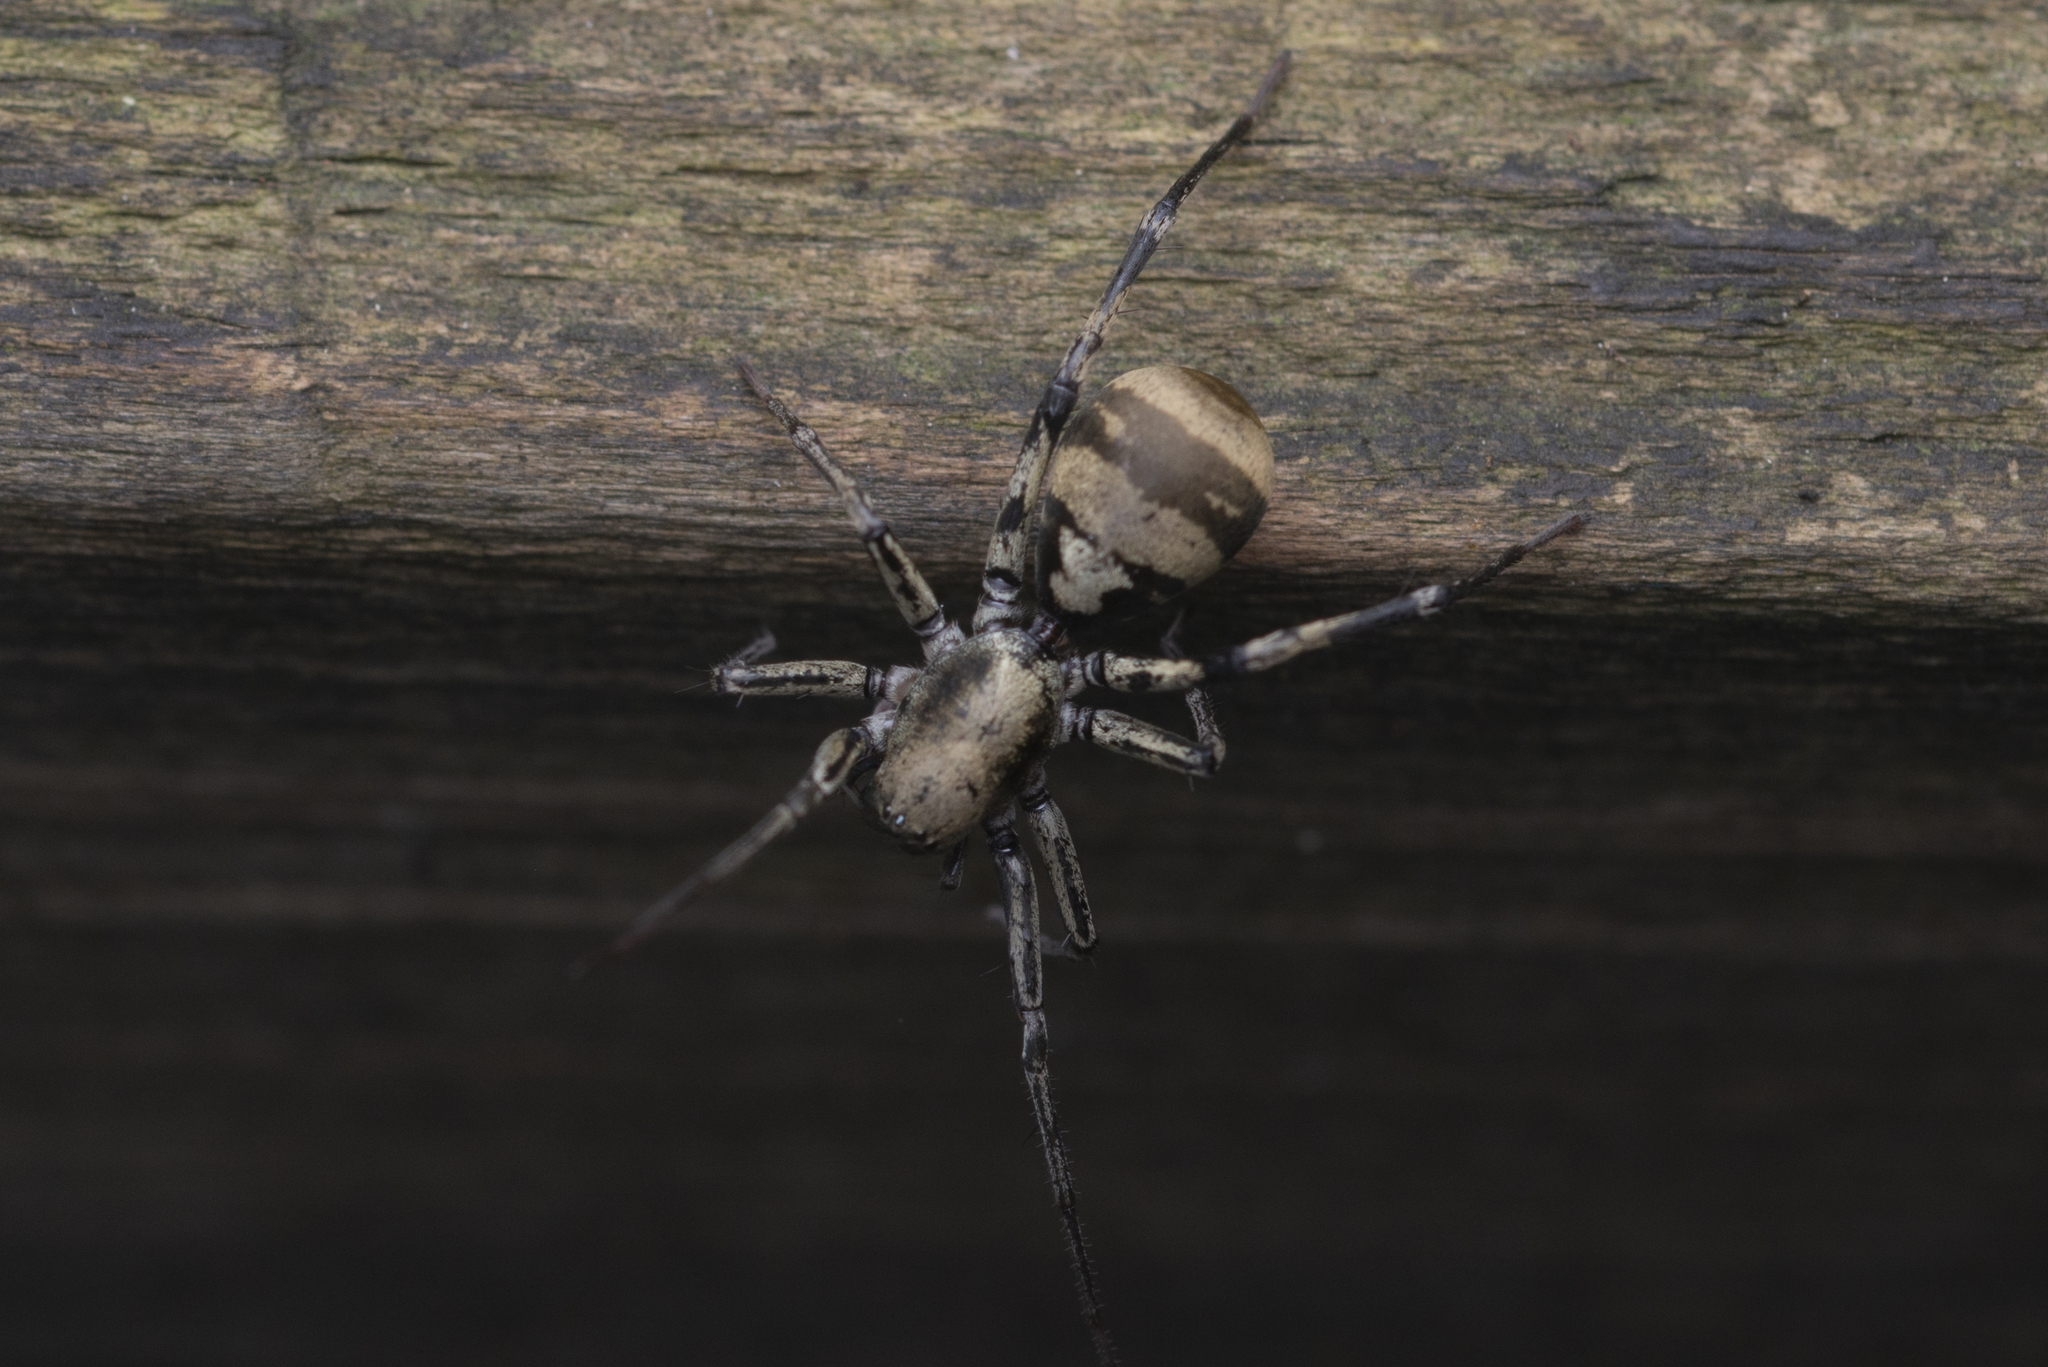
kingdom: Animalia
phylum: Arthropoda
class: Arachnida
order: Araneae
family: Corinnidae
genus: Corinnomma
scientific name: Corinnomma severum
